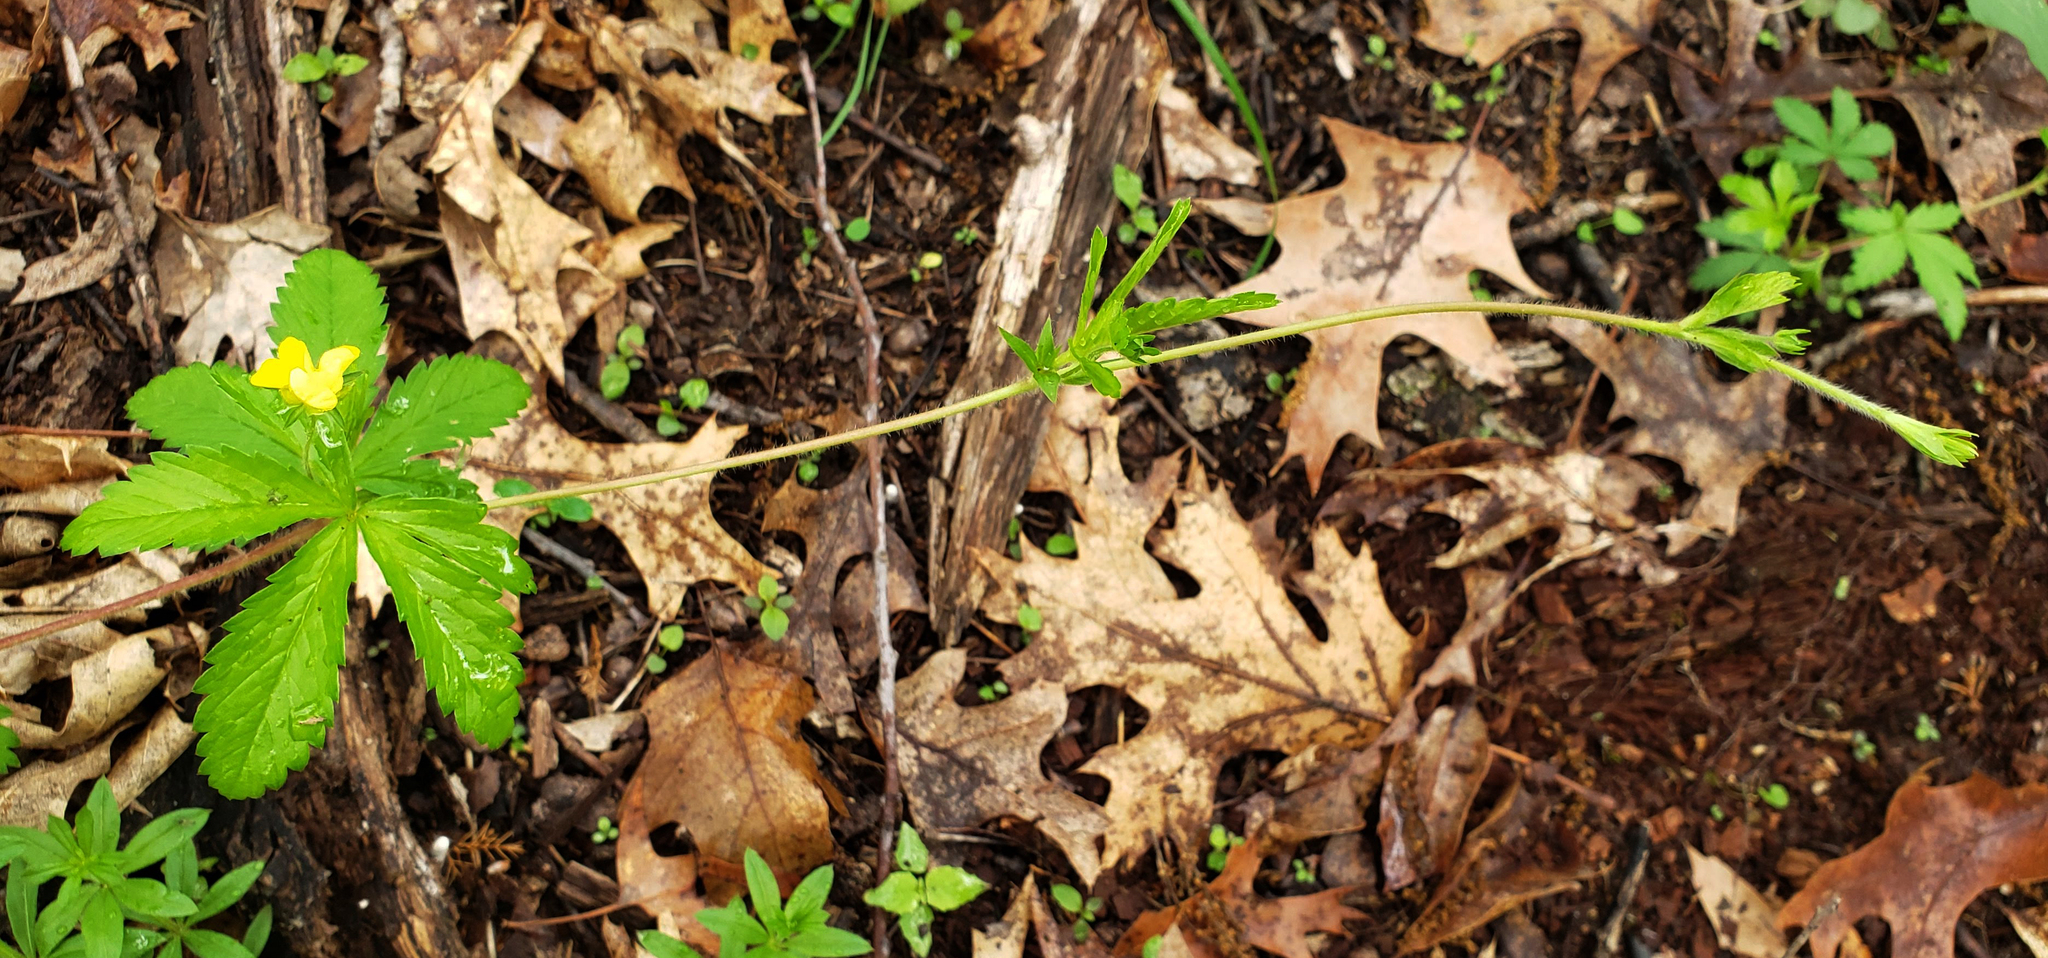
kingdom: Plantae
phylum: Tracheophyta
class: Magnoliopsida
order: Rosales
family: Rosaceae
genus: Potentilla
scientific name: Potentilla simplex
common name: Old field cinquefoil
